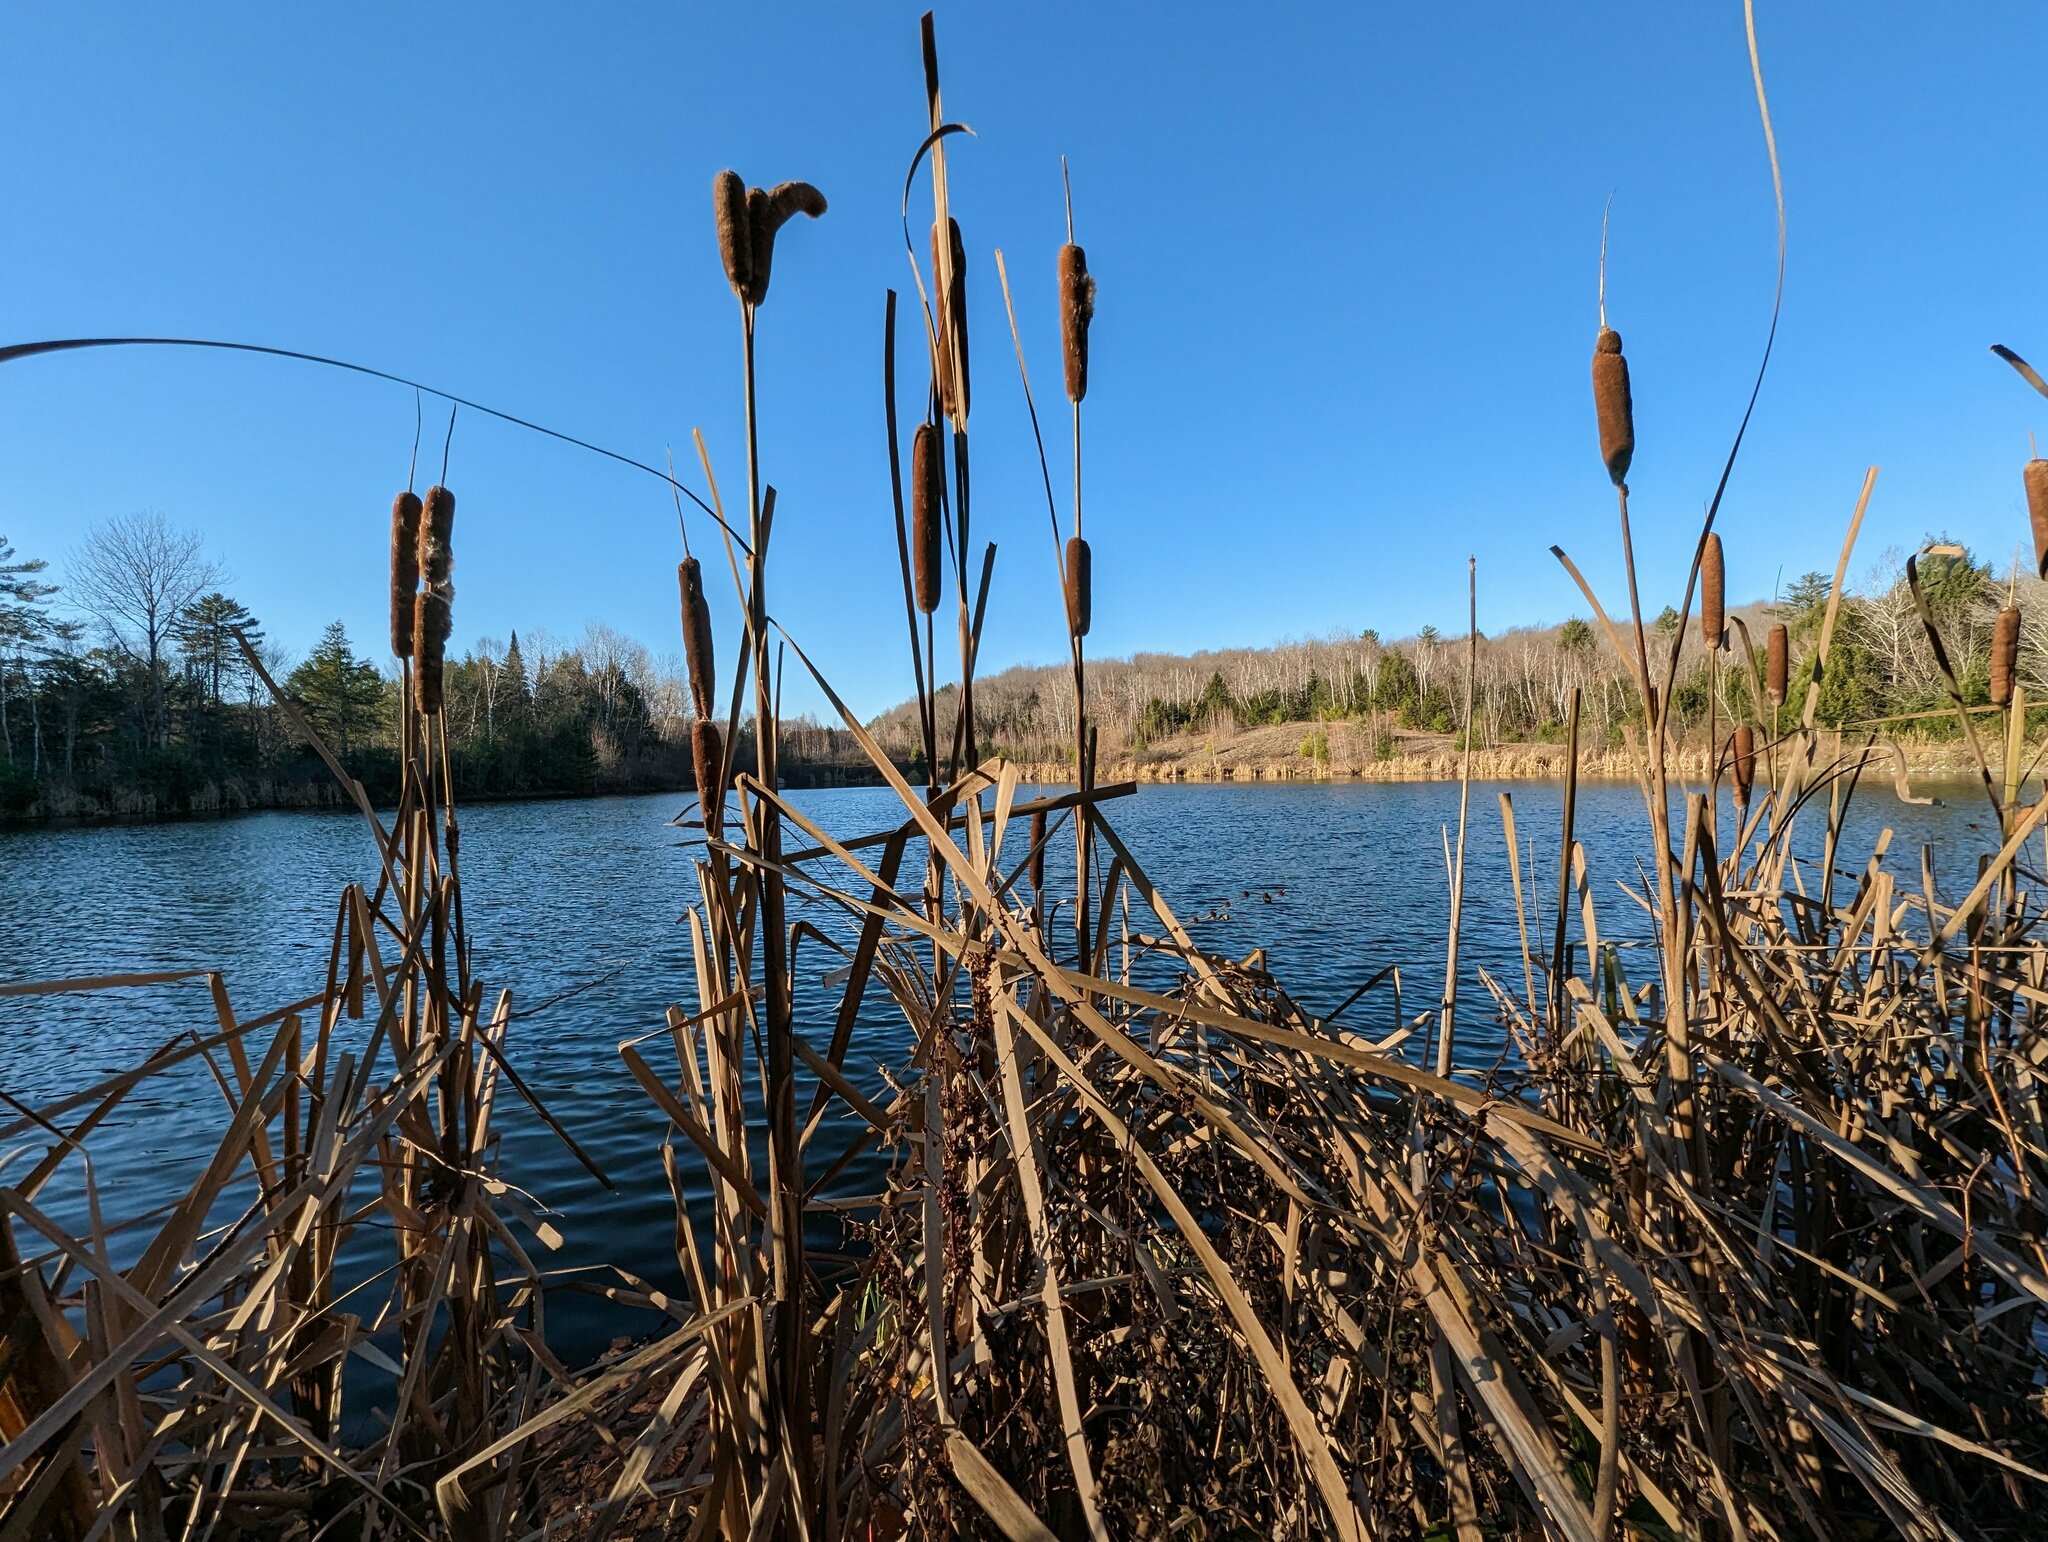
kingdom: Plantae
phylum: Tracheophyta
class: Liliopsida
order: Poales
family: Typhaceae
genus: Typha
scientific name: Typha latifolia
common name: Broadleaf cattail
